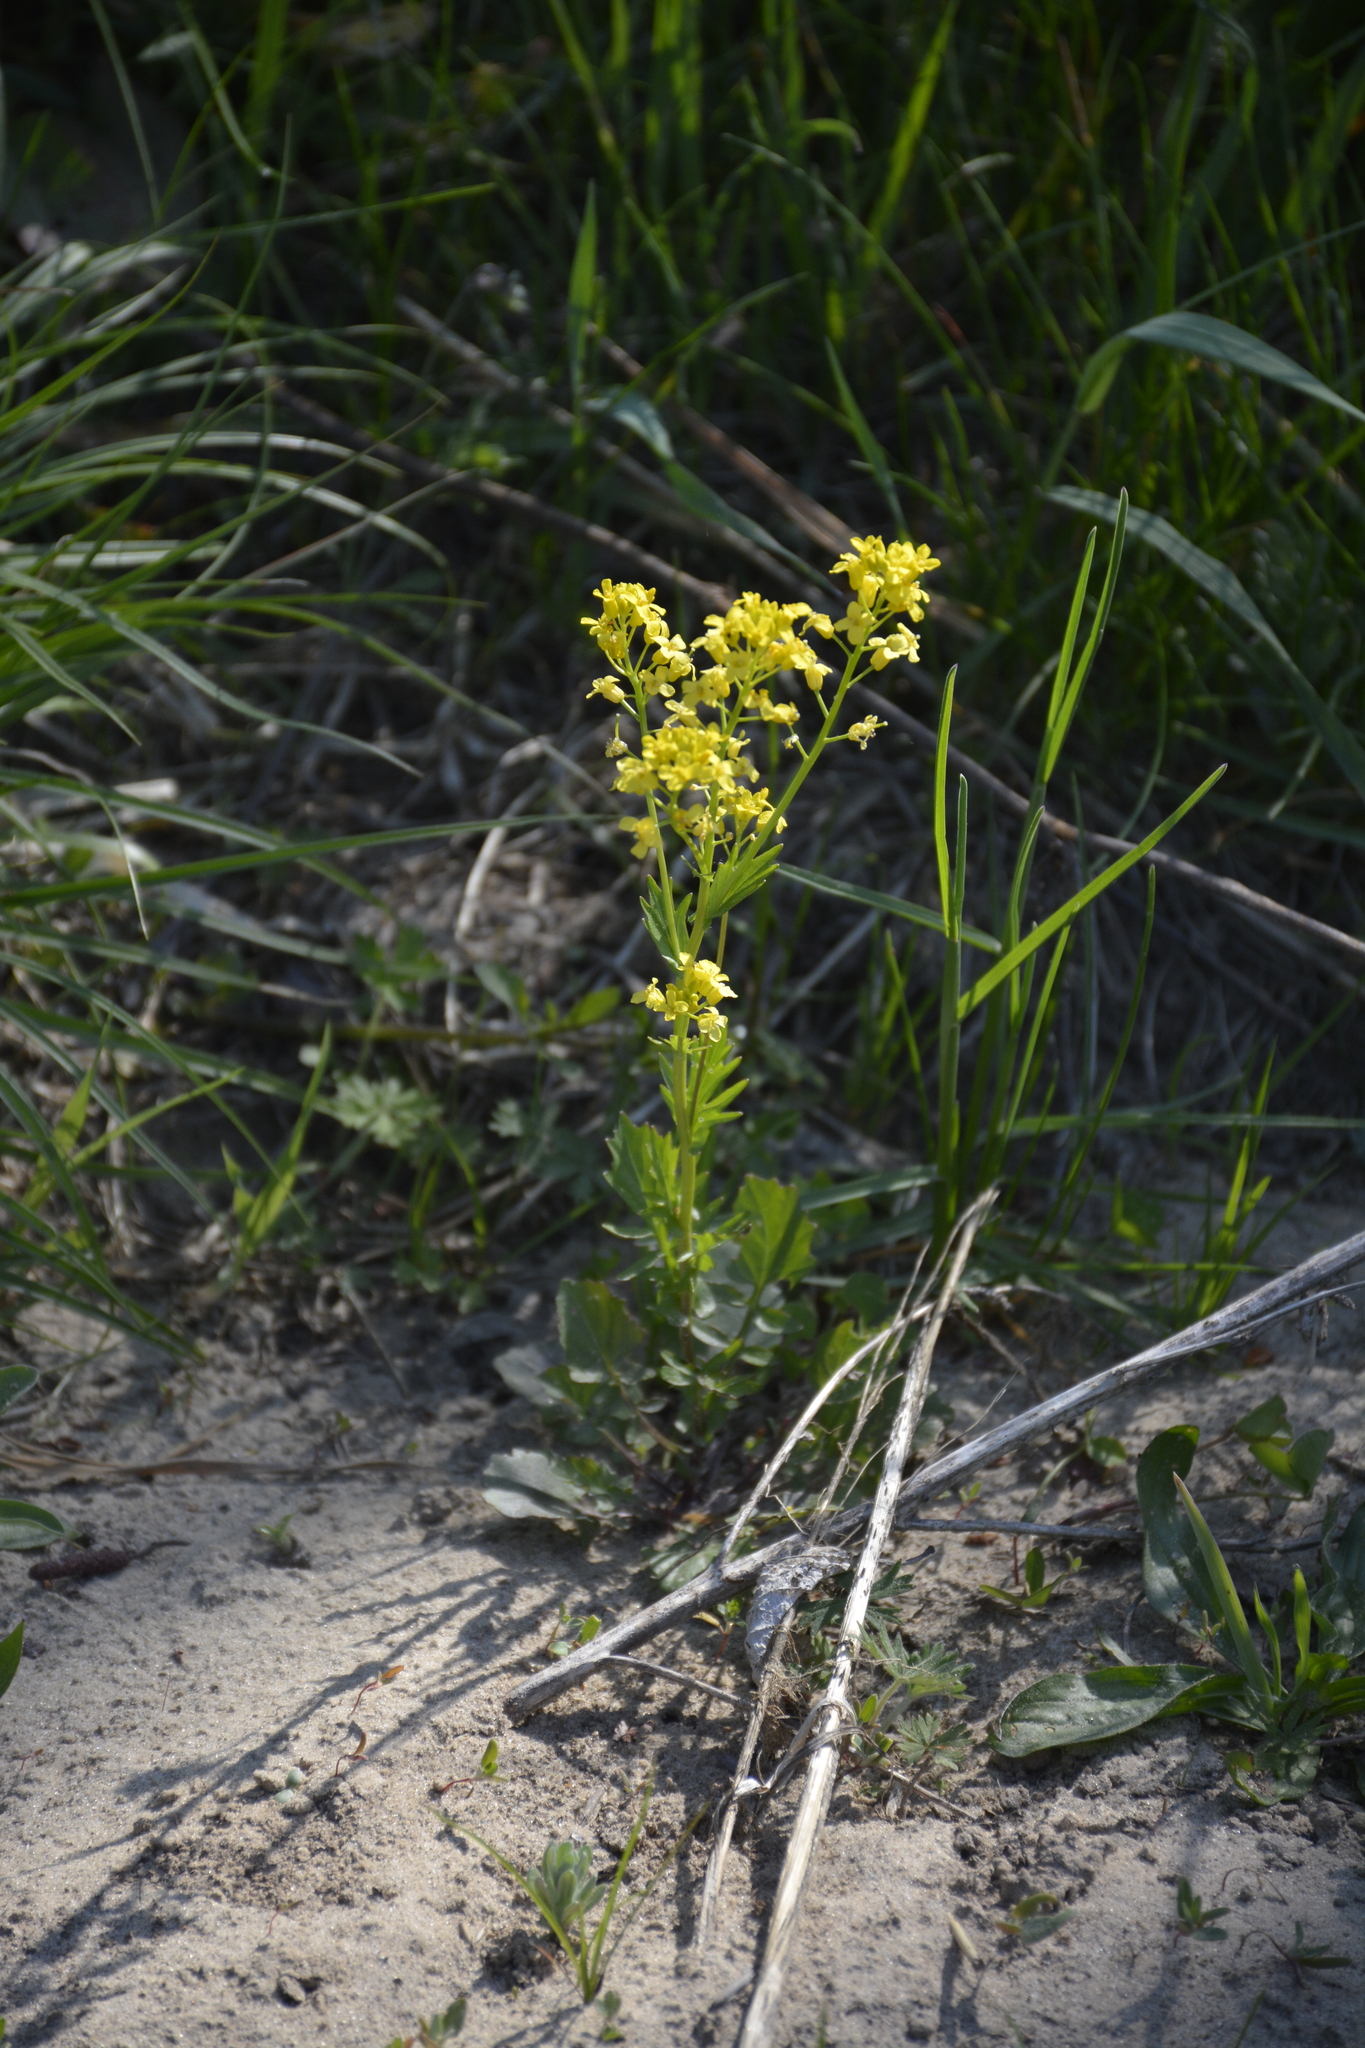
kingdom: Plantae
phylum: Tracheophyta
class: Magnoliopsida
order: Brassicales
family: Brassicaceae
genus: Barbarea
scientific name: Barbarea vulgaris
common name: Cressy-greens
